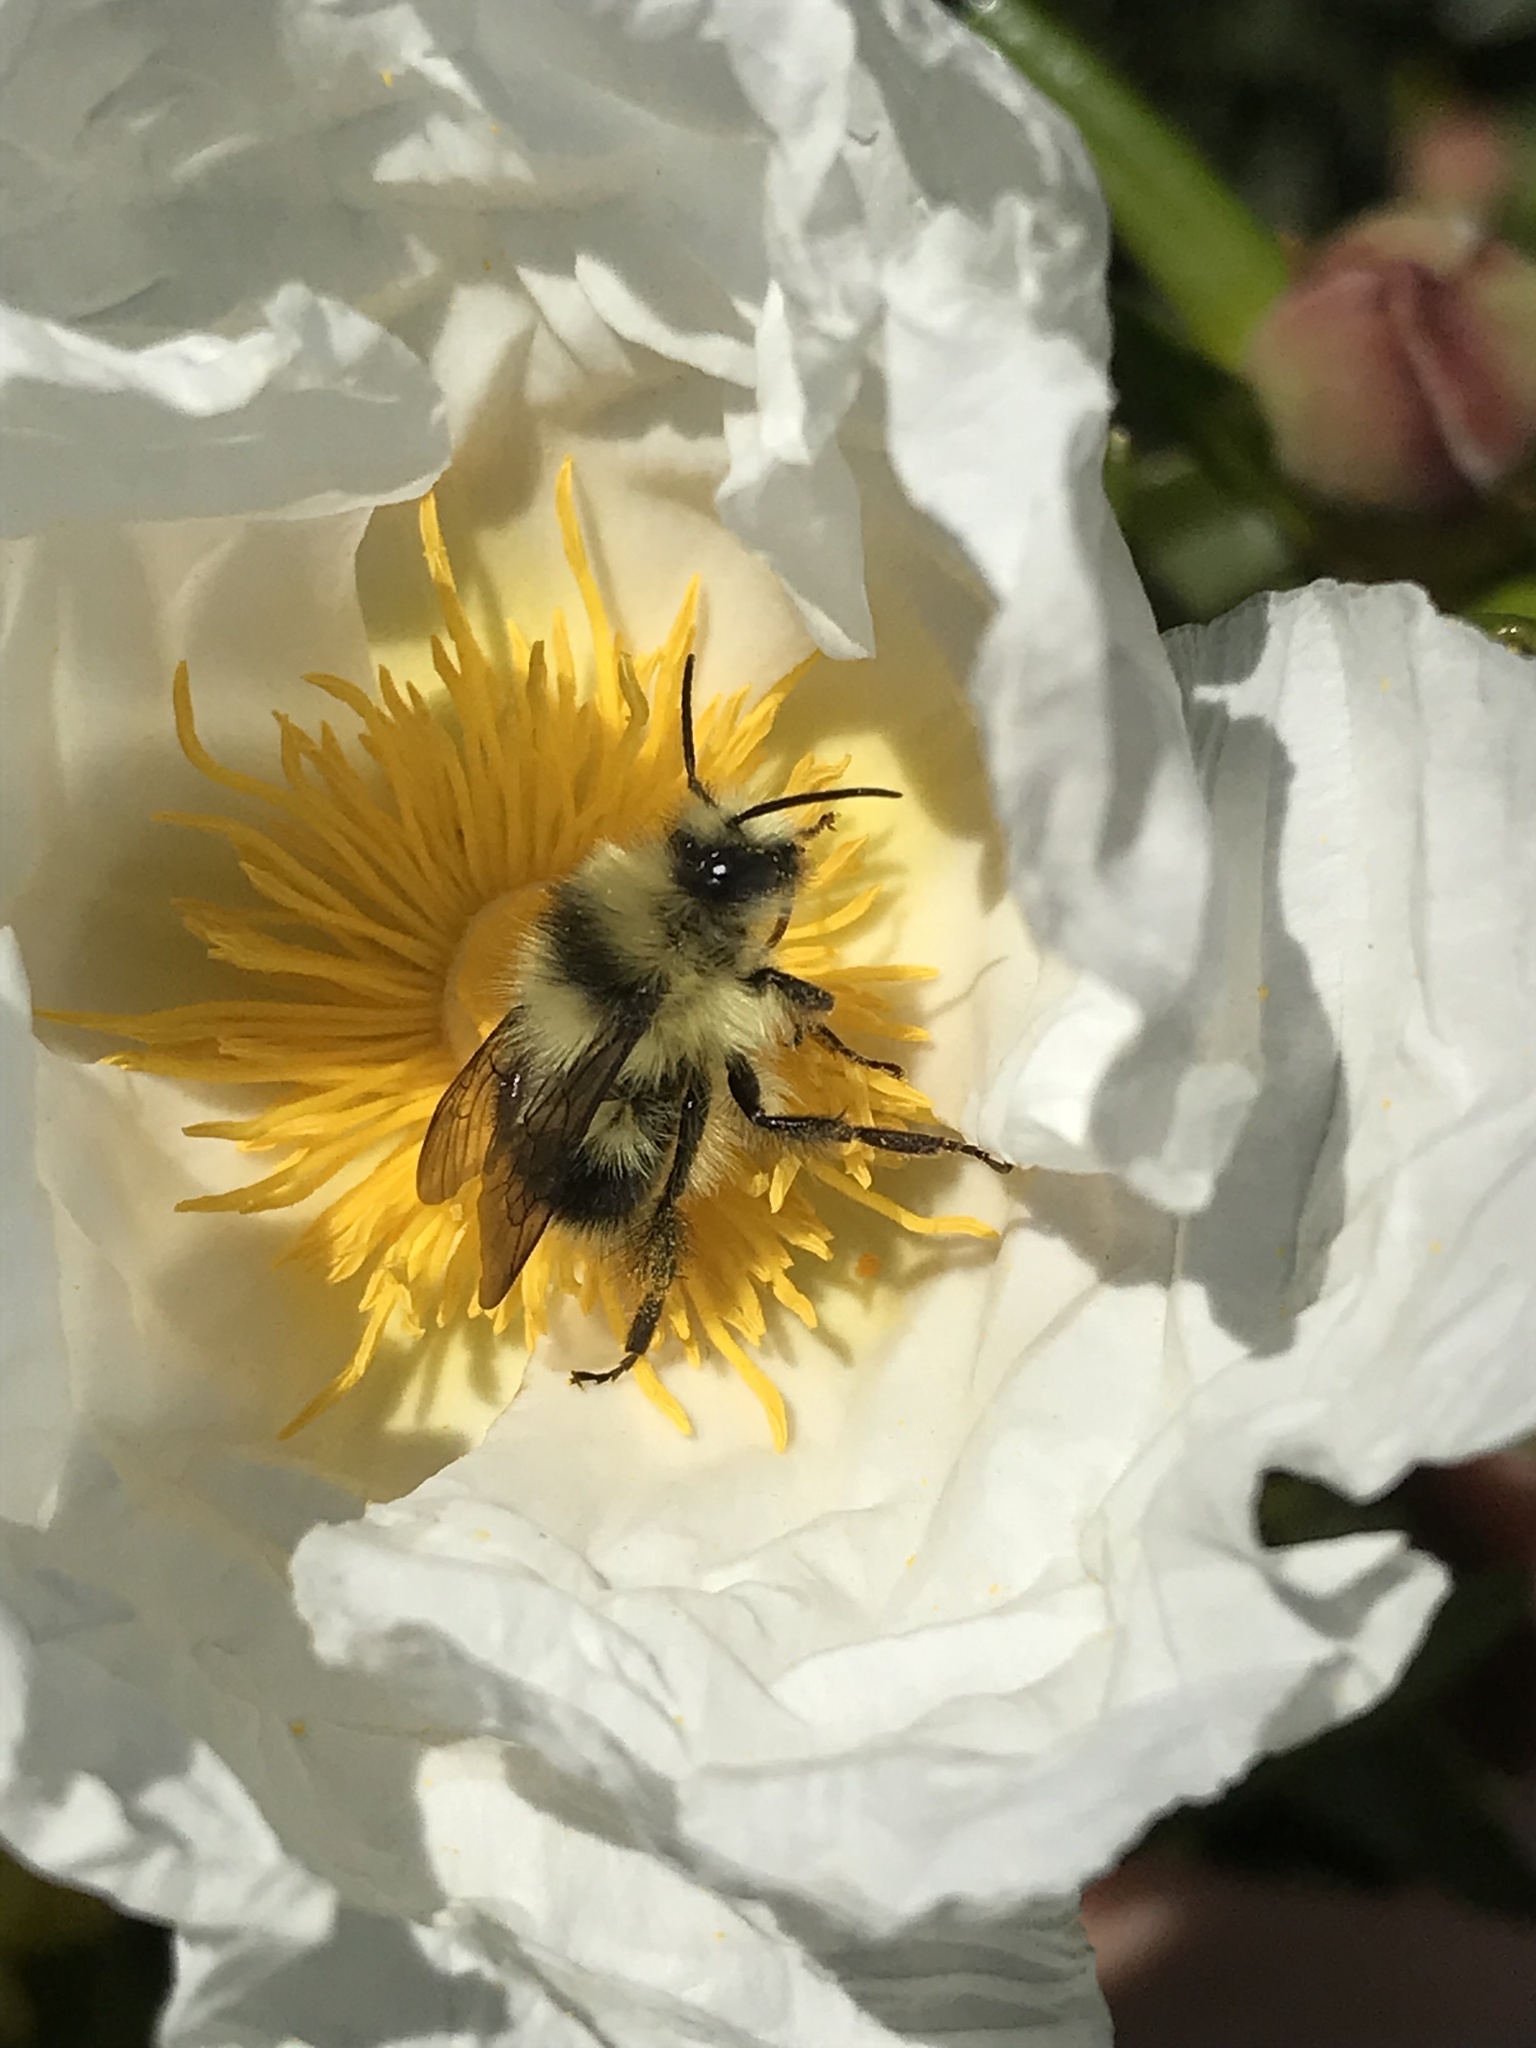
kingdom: Animalia
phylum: Arthropoda
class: Insecta
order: Hymenoptera
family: Apidae
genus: Bombus
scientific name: Bombus melanopygus
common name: Black tail bumble bee
